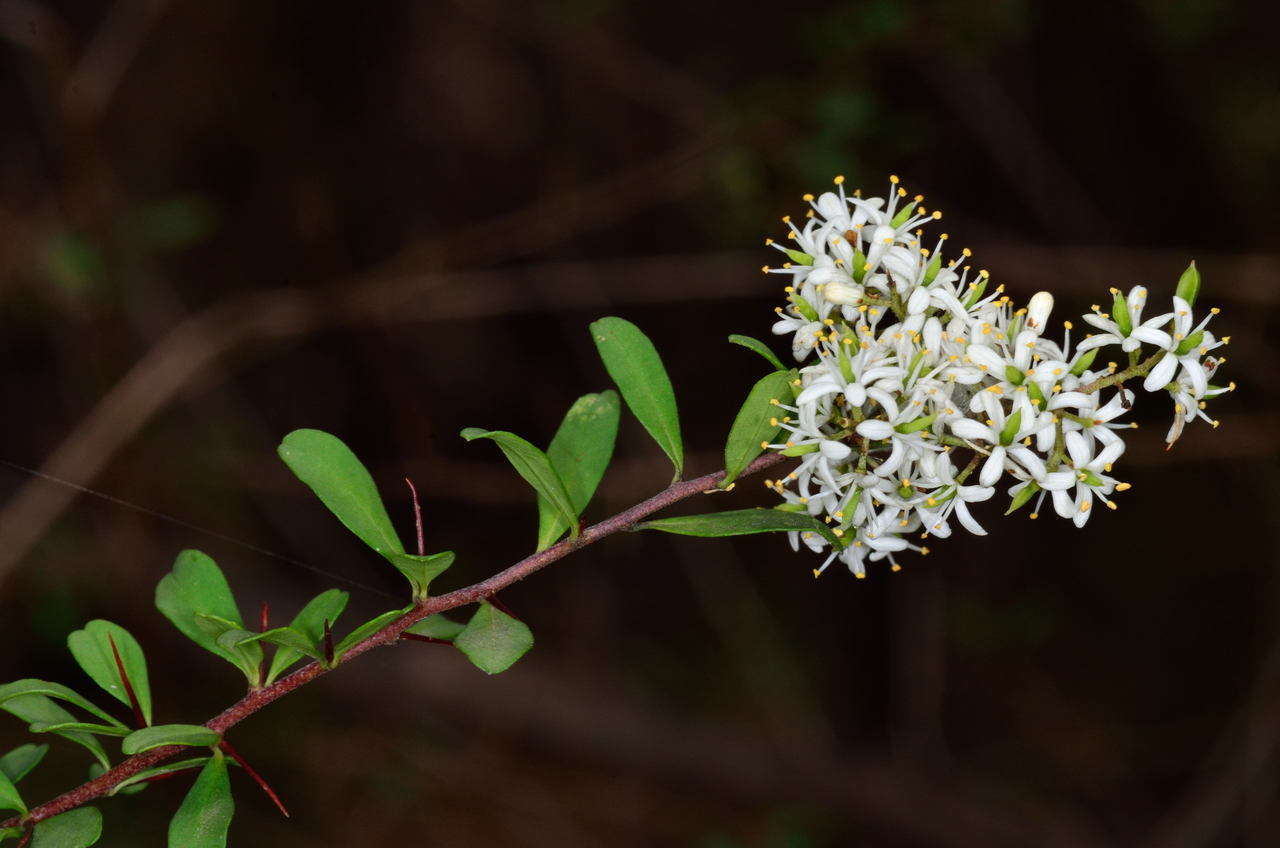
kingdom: Plantae
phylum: Tracheophyta
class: Magnoliopsida
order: Apiales
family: Pittosporaceae
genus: Bursaria
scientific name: Bursaria spinosa
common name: Australian blackthorn
